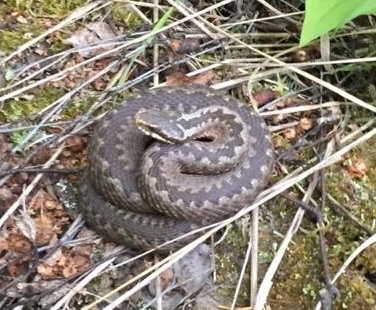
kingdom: Animalia
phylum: Chordata
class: Squamata
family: Viperidae
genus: Vipera
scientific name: Vipera berus
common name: Adder
